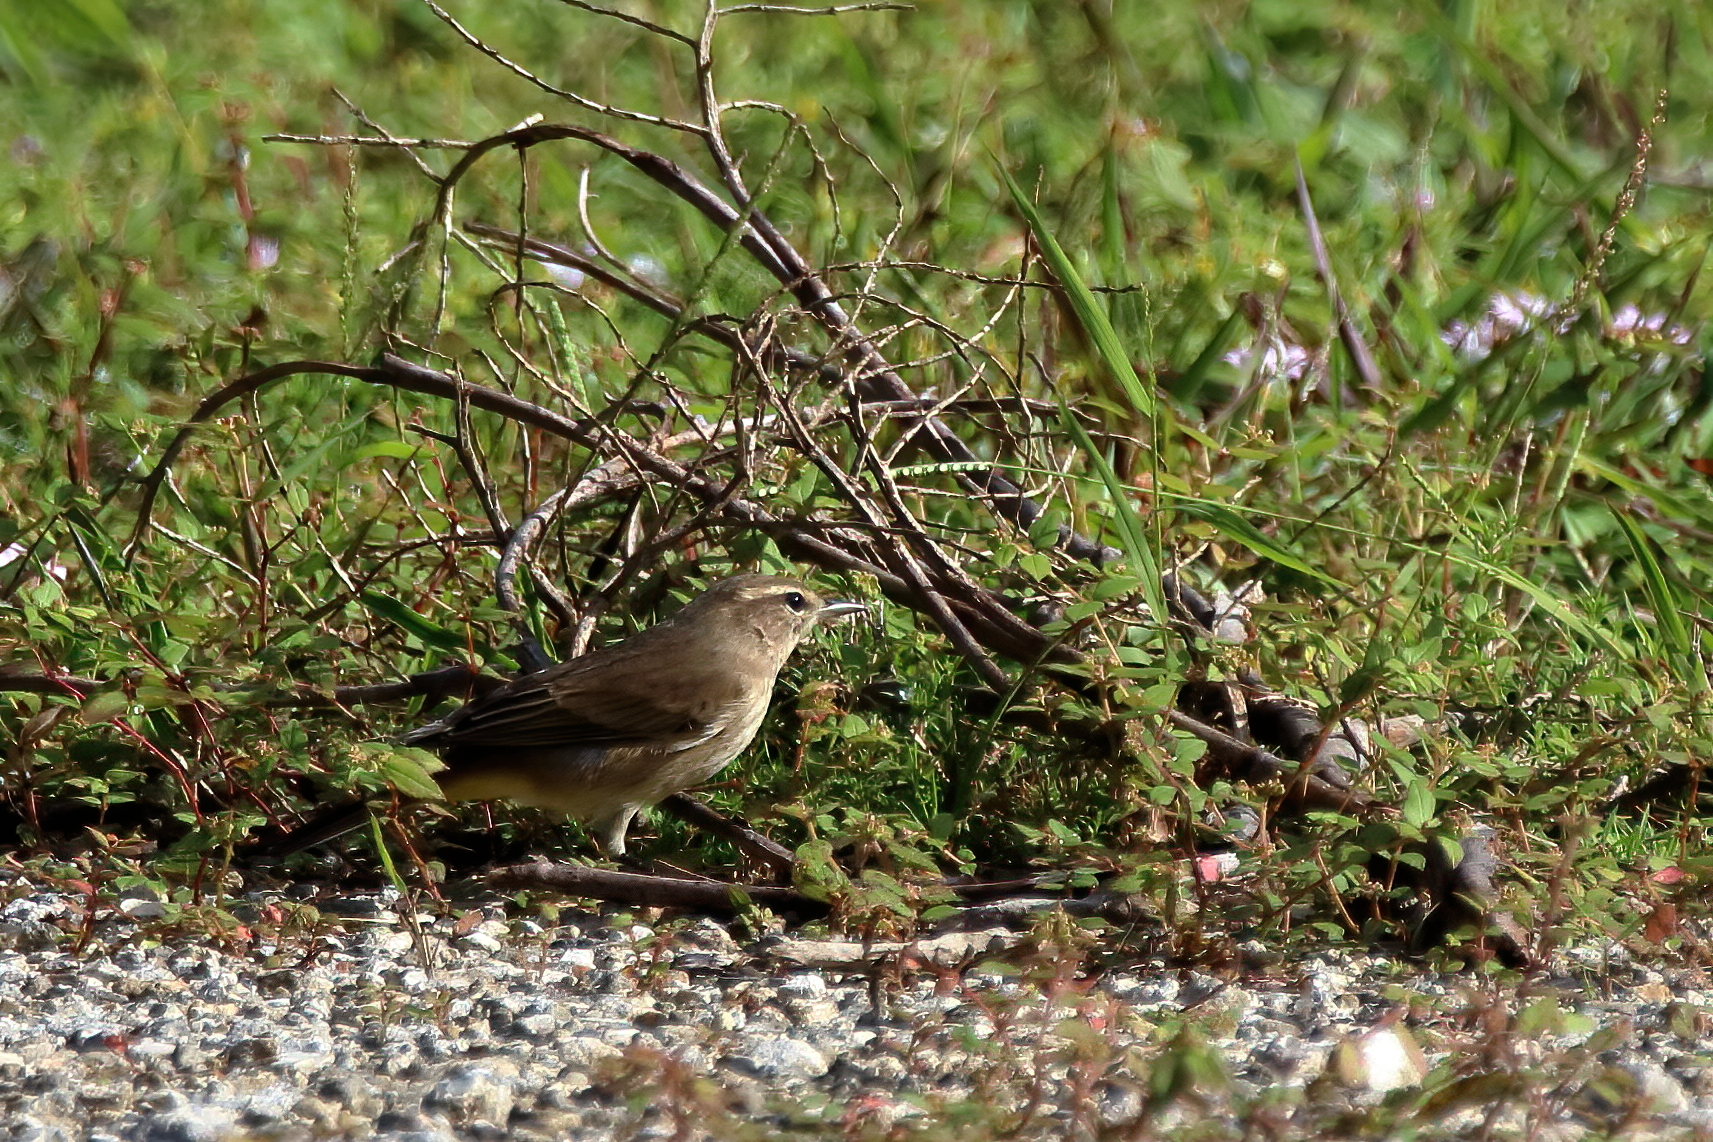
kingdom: Animalia
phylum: Chordata
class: Aves
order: Passeriformes
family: Parulidae
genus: Setophaga
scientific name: Setophaga palmarum
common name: Palm warbler
